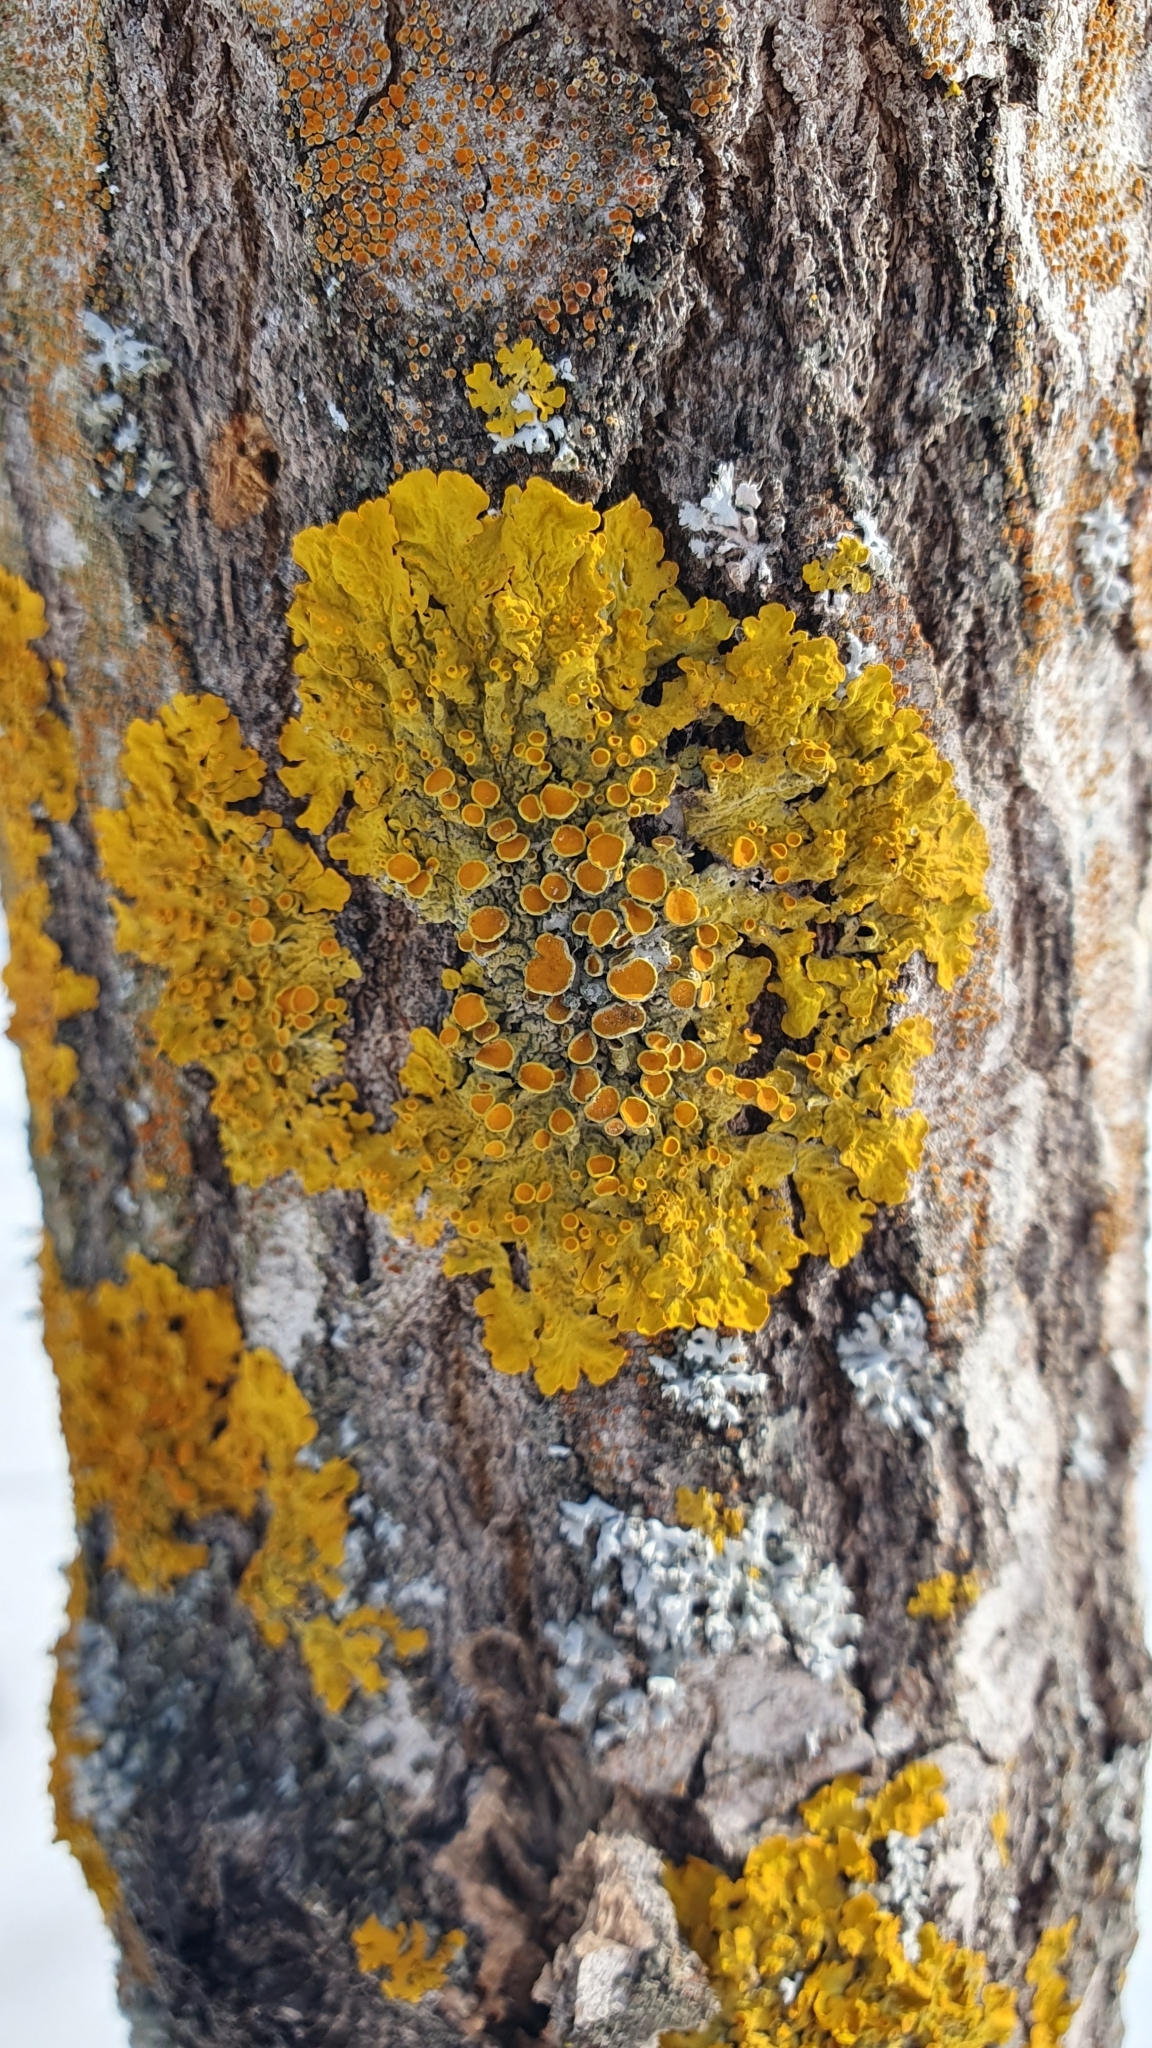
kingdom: Fungi
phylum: Ascomycota
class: Lecanoromycetes
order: Teloschistales
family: Teloschistaceae
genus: Xanthoria
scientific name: Xanthoria parietina
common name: Common orange lichen
